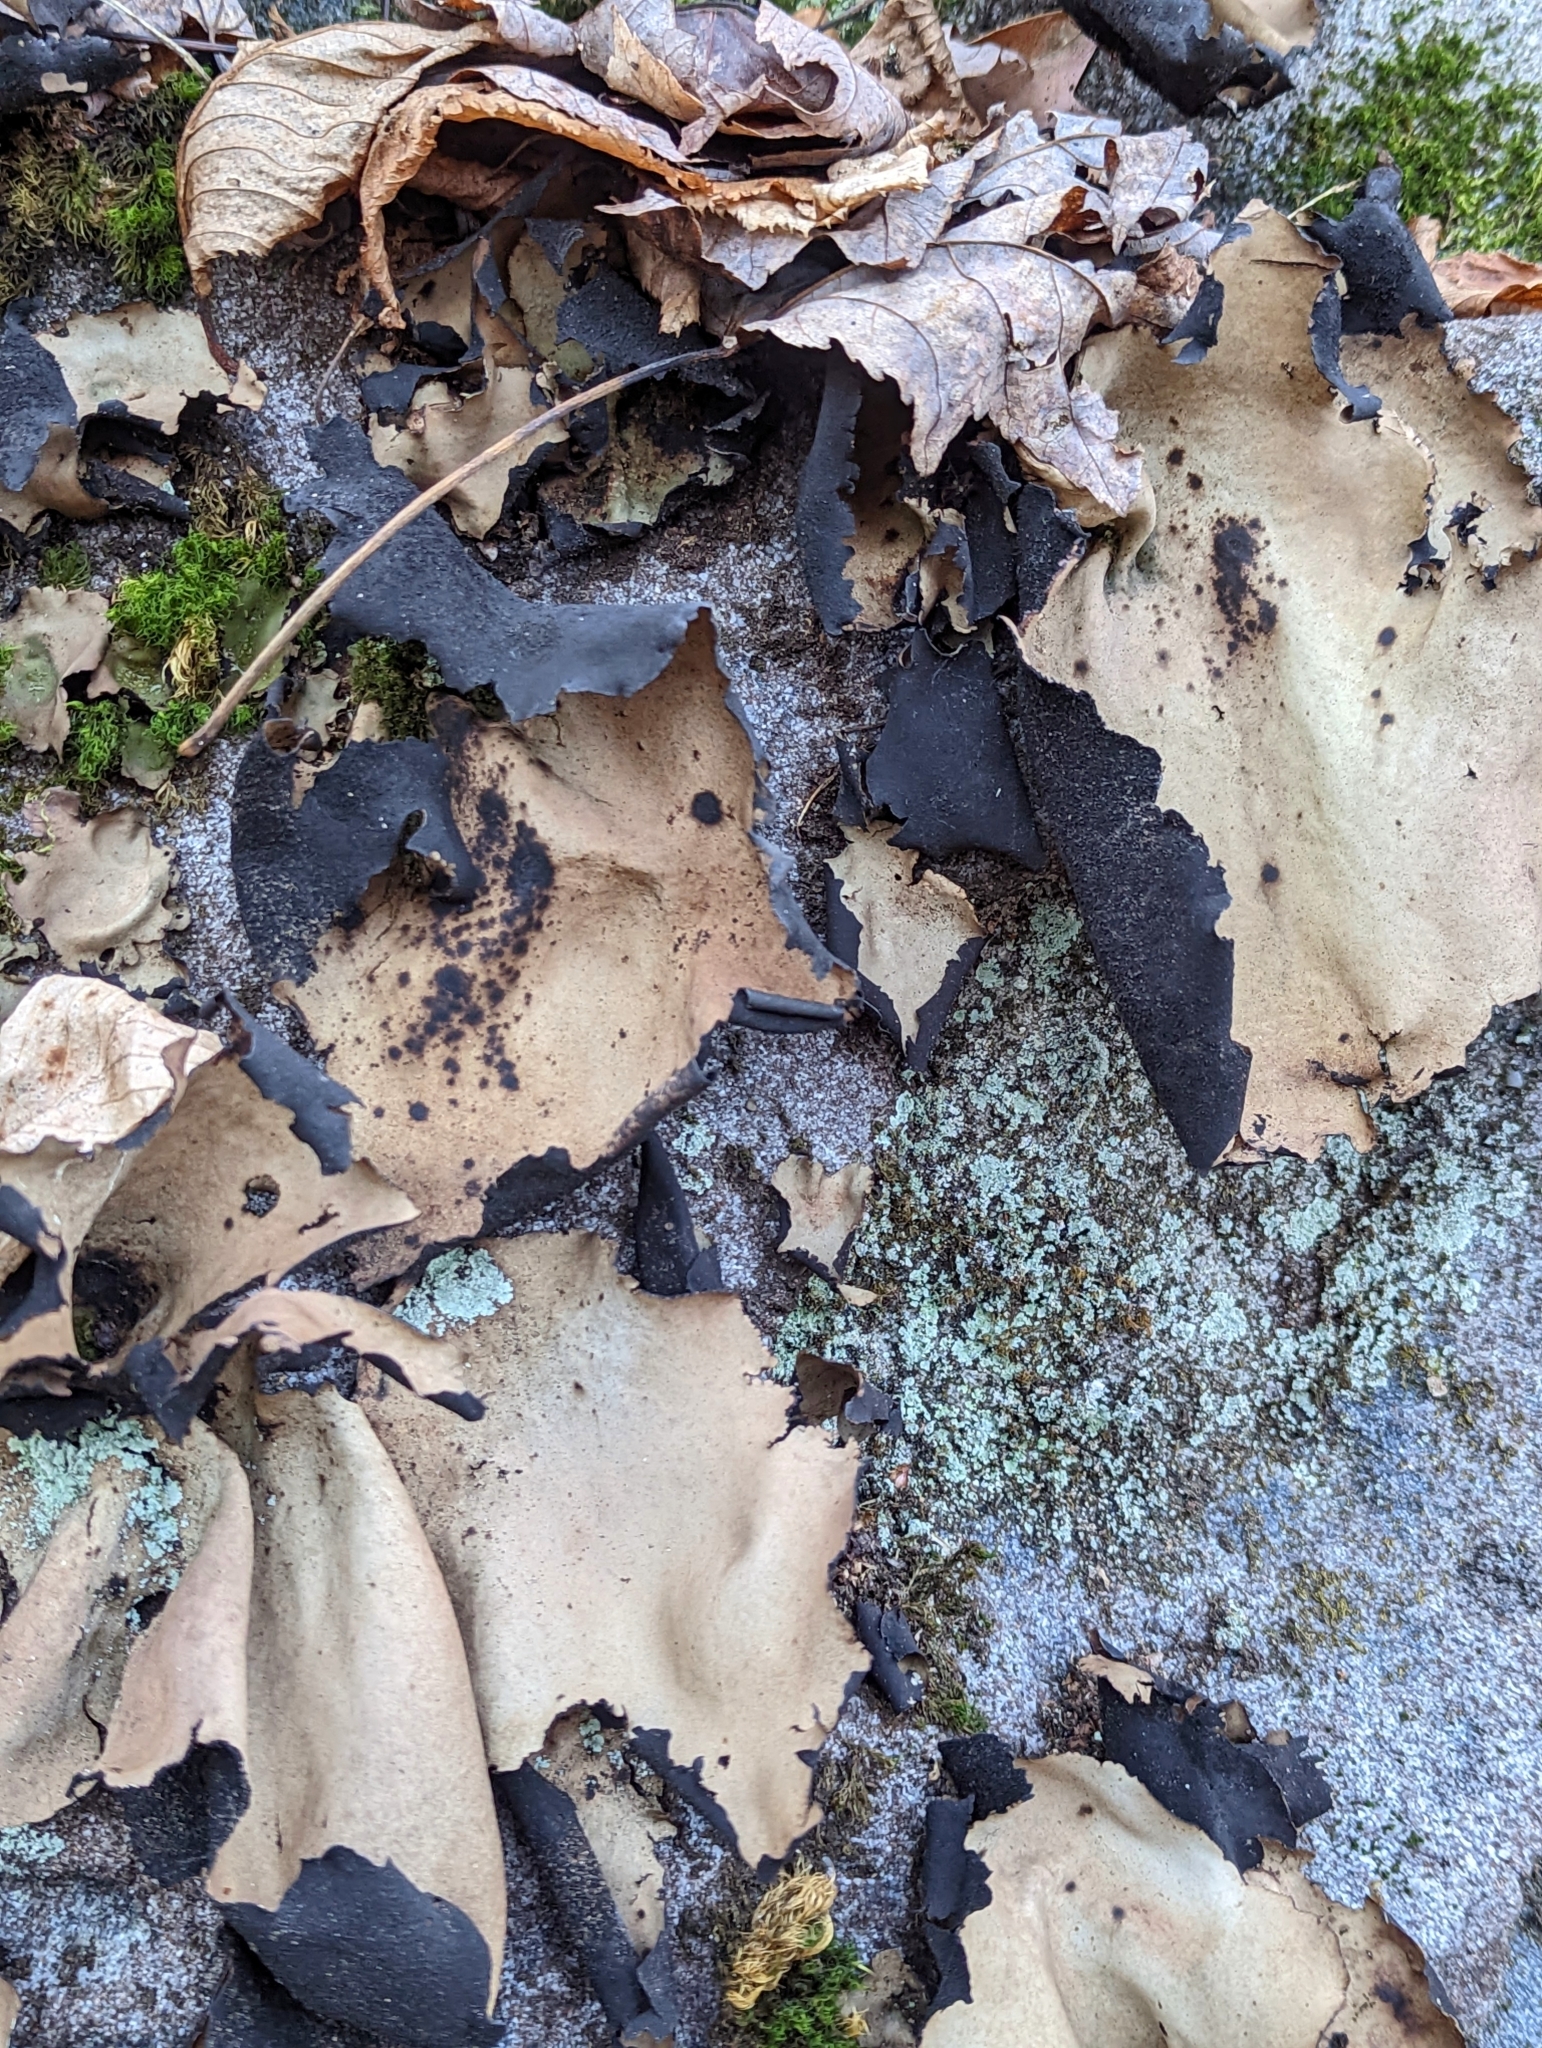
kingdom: Fungi
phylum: Ascomycota
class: Lecanoromycetes
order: Umbilicariales
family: Umbilicariaceae
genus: Umbilicaria
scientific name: Umbilicaria mammulata
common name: Smooth rock tripe
